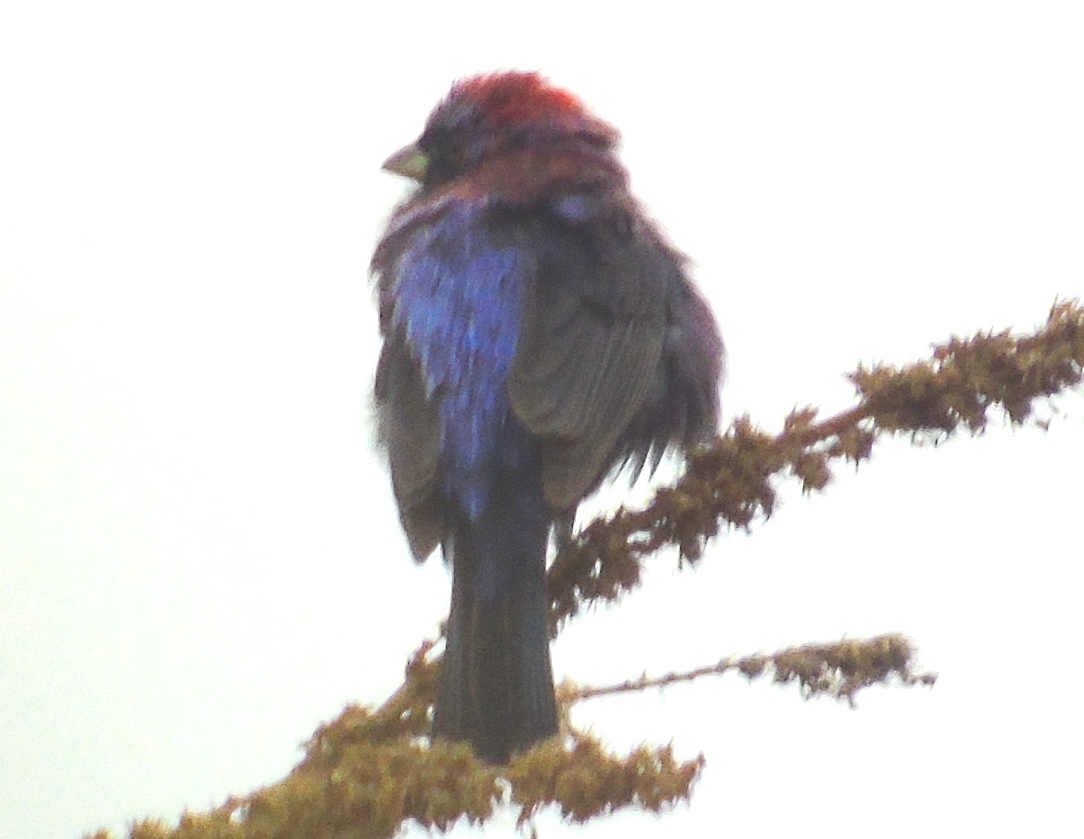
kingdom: Animalia
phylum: Chordata
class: Aves
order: Passeriformes
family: Cardinalidae
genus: Passerina
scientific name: Passerina versicolor
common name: Varied bunting
